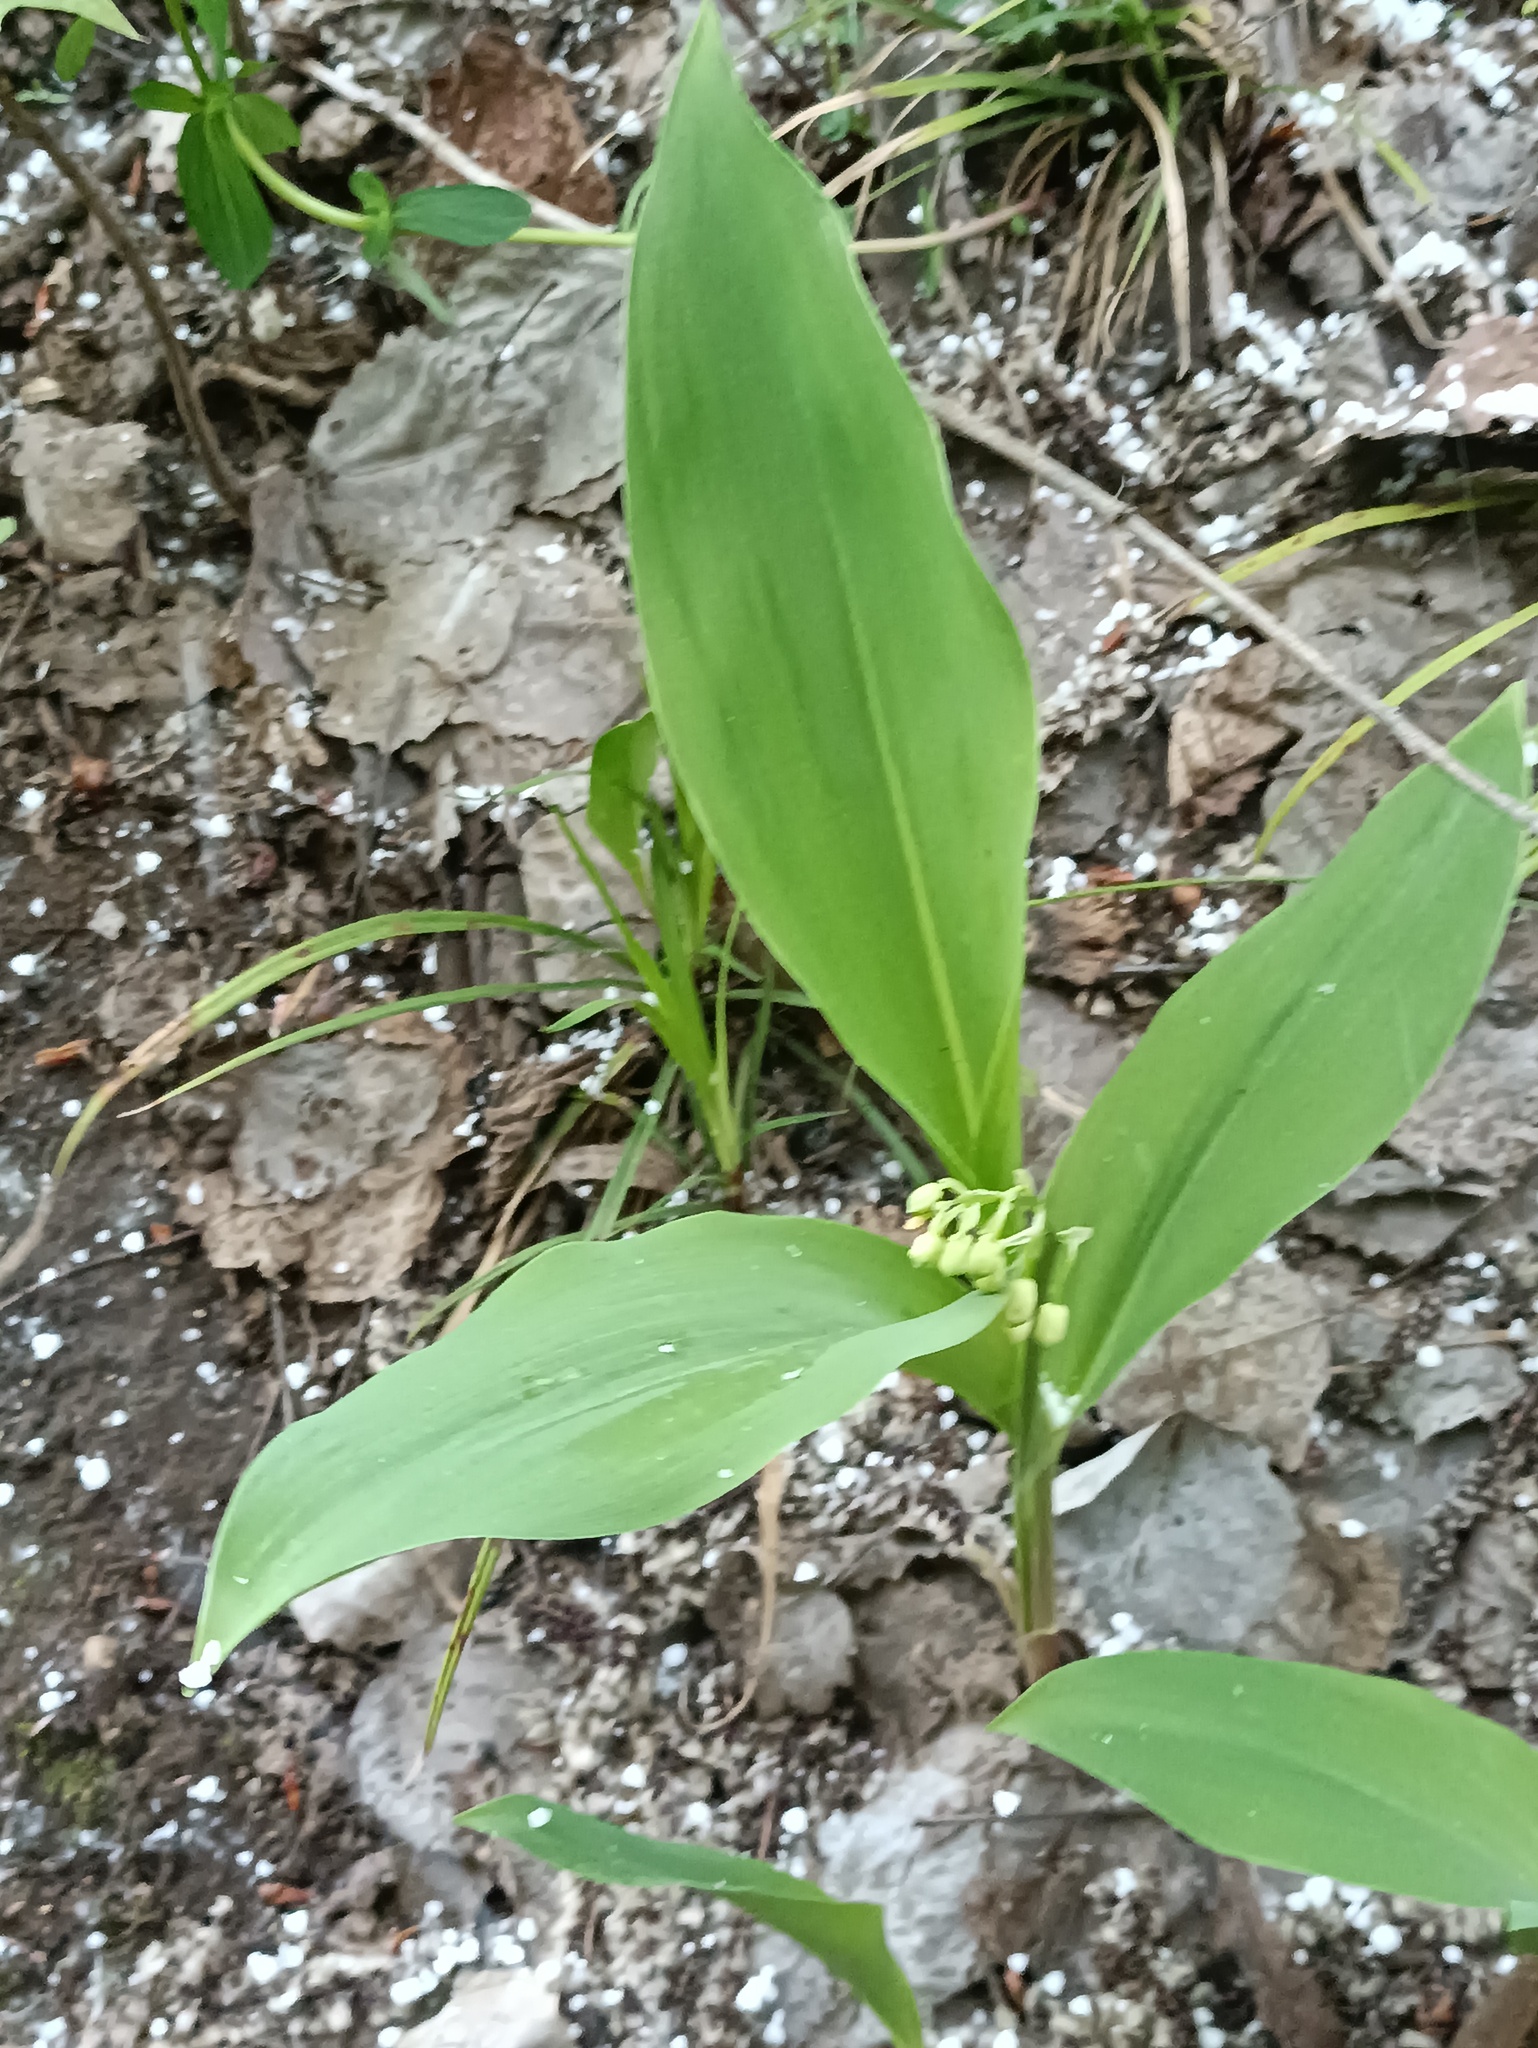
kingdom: Plantae
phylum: Tracheophyta
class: Liliopsida
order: Asparagales
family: Asparagaceae
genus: Convallaria
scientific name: Convallaria majalis
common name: Lily-of-the-valley
